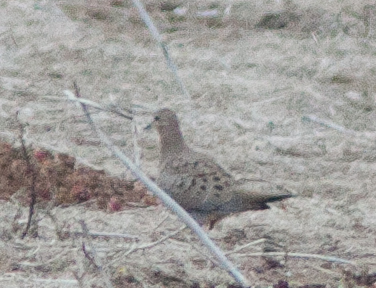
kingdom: Animalia
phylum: Chordata
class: Aves
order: Columbiformes
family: Columbidae
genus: Zenaida
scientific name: Zenaida macroura
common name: Mourning dove
